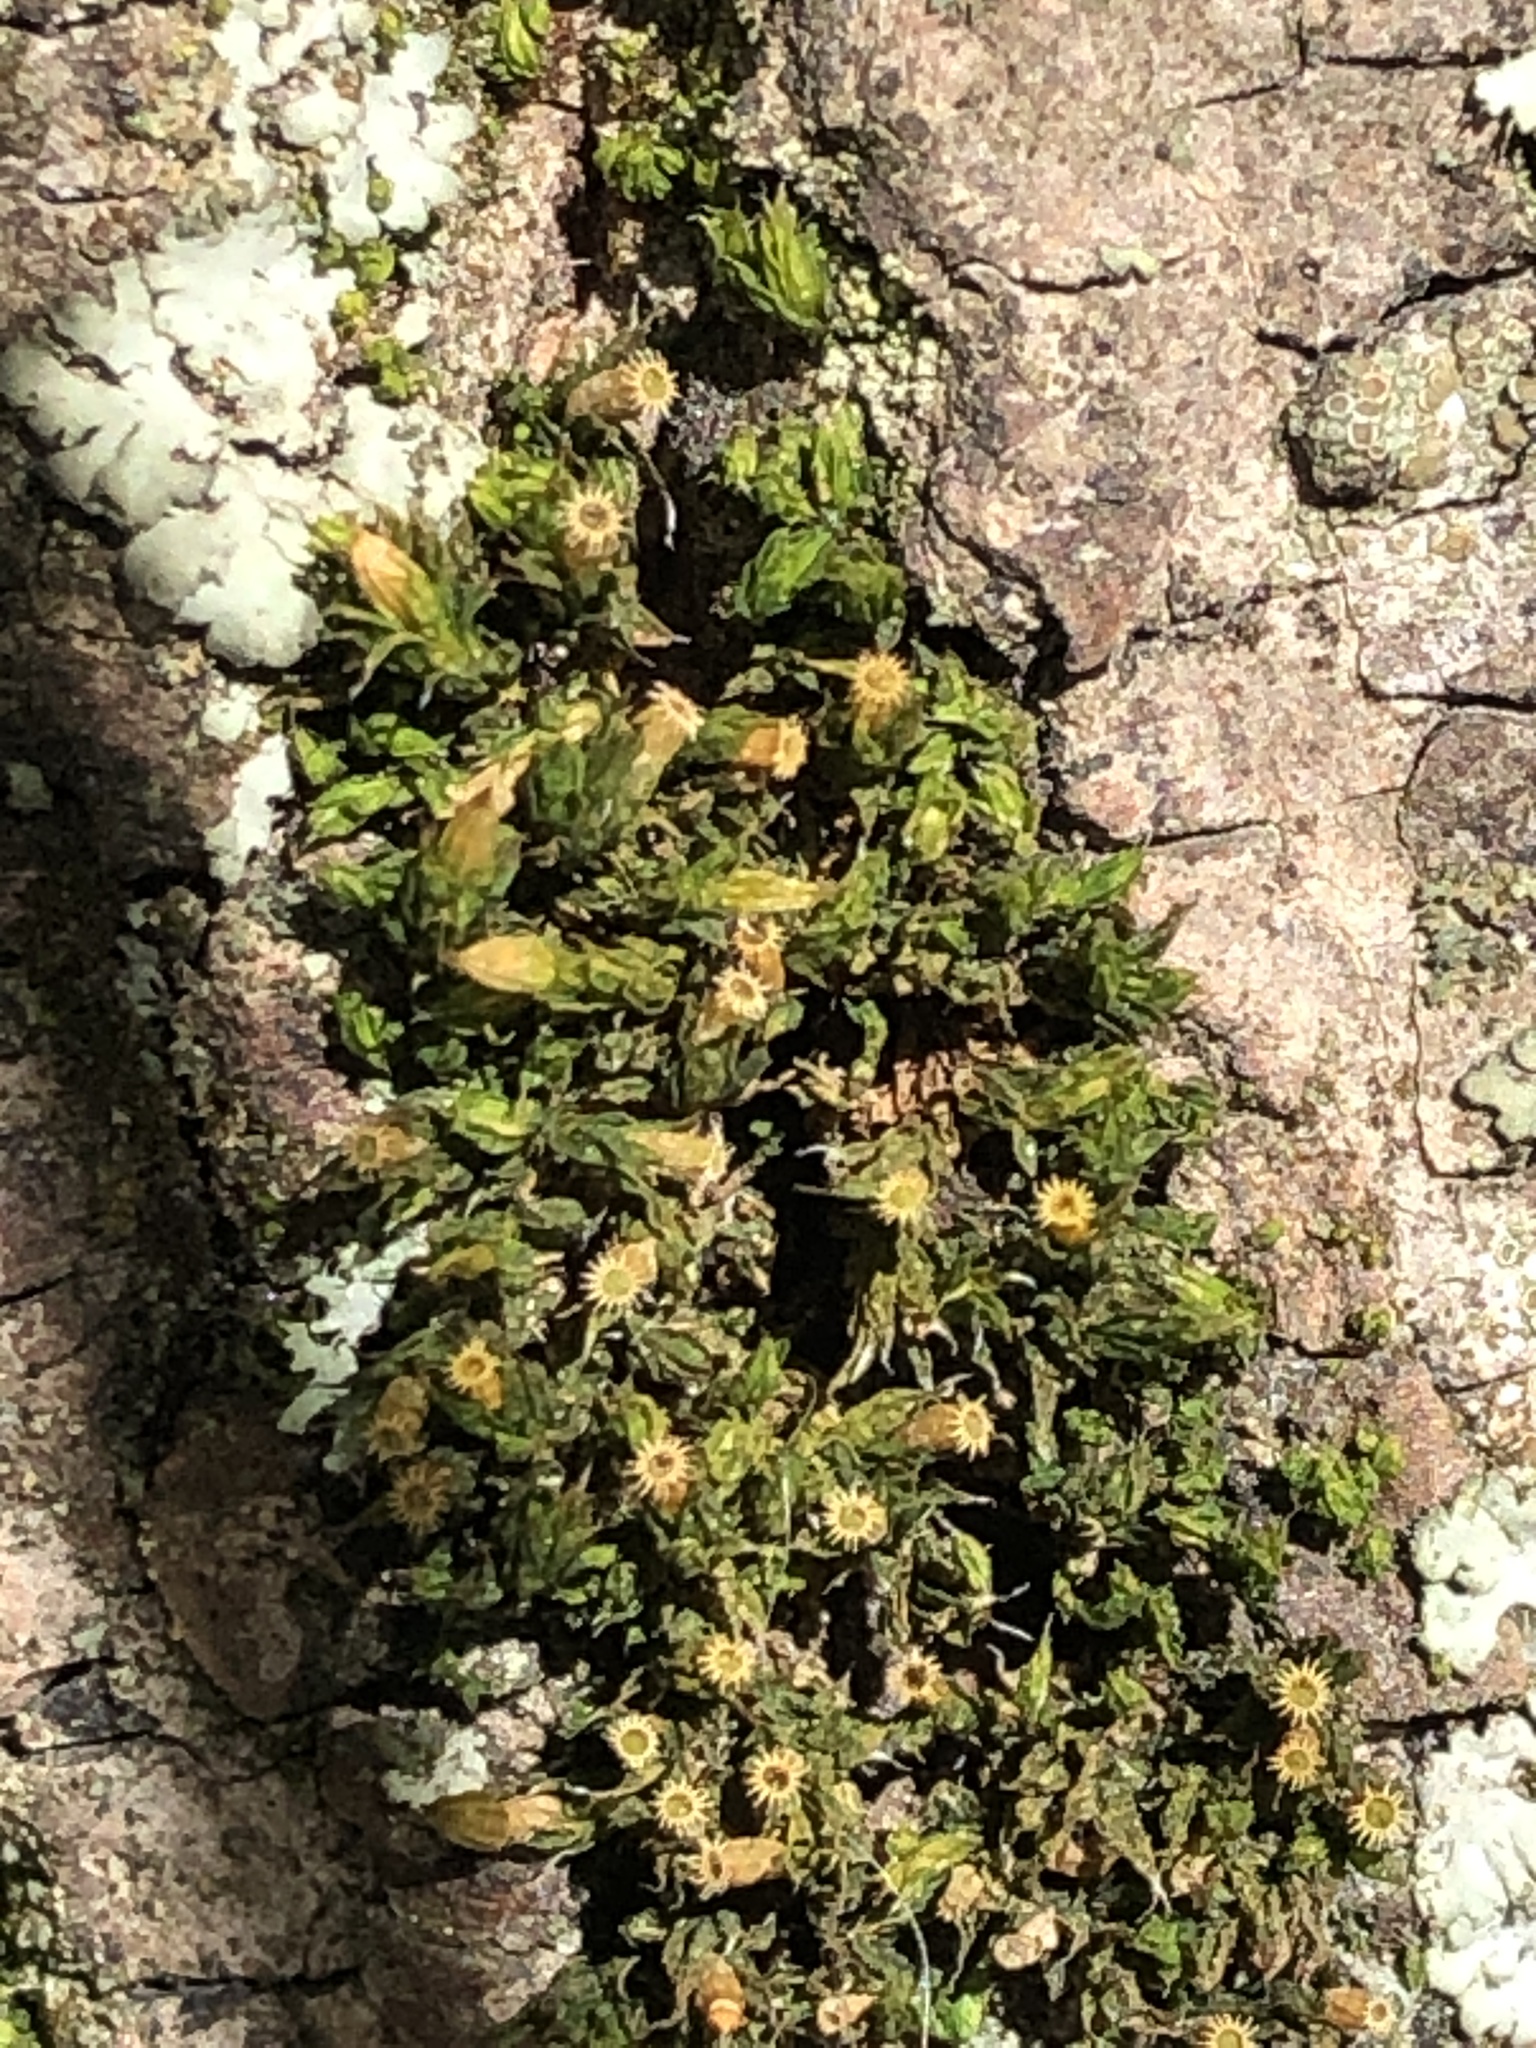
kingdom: Plantae
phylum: Bryophyta
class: Bryopsida
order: Orthotrichales
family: Orthotrichaceae
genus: Orthotrichum
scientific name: Orthotrichum diaphanum
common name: White-tipped bristle-moss
